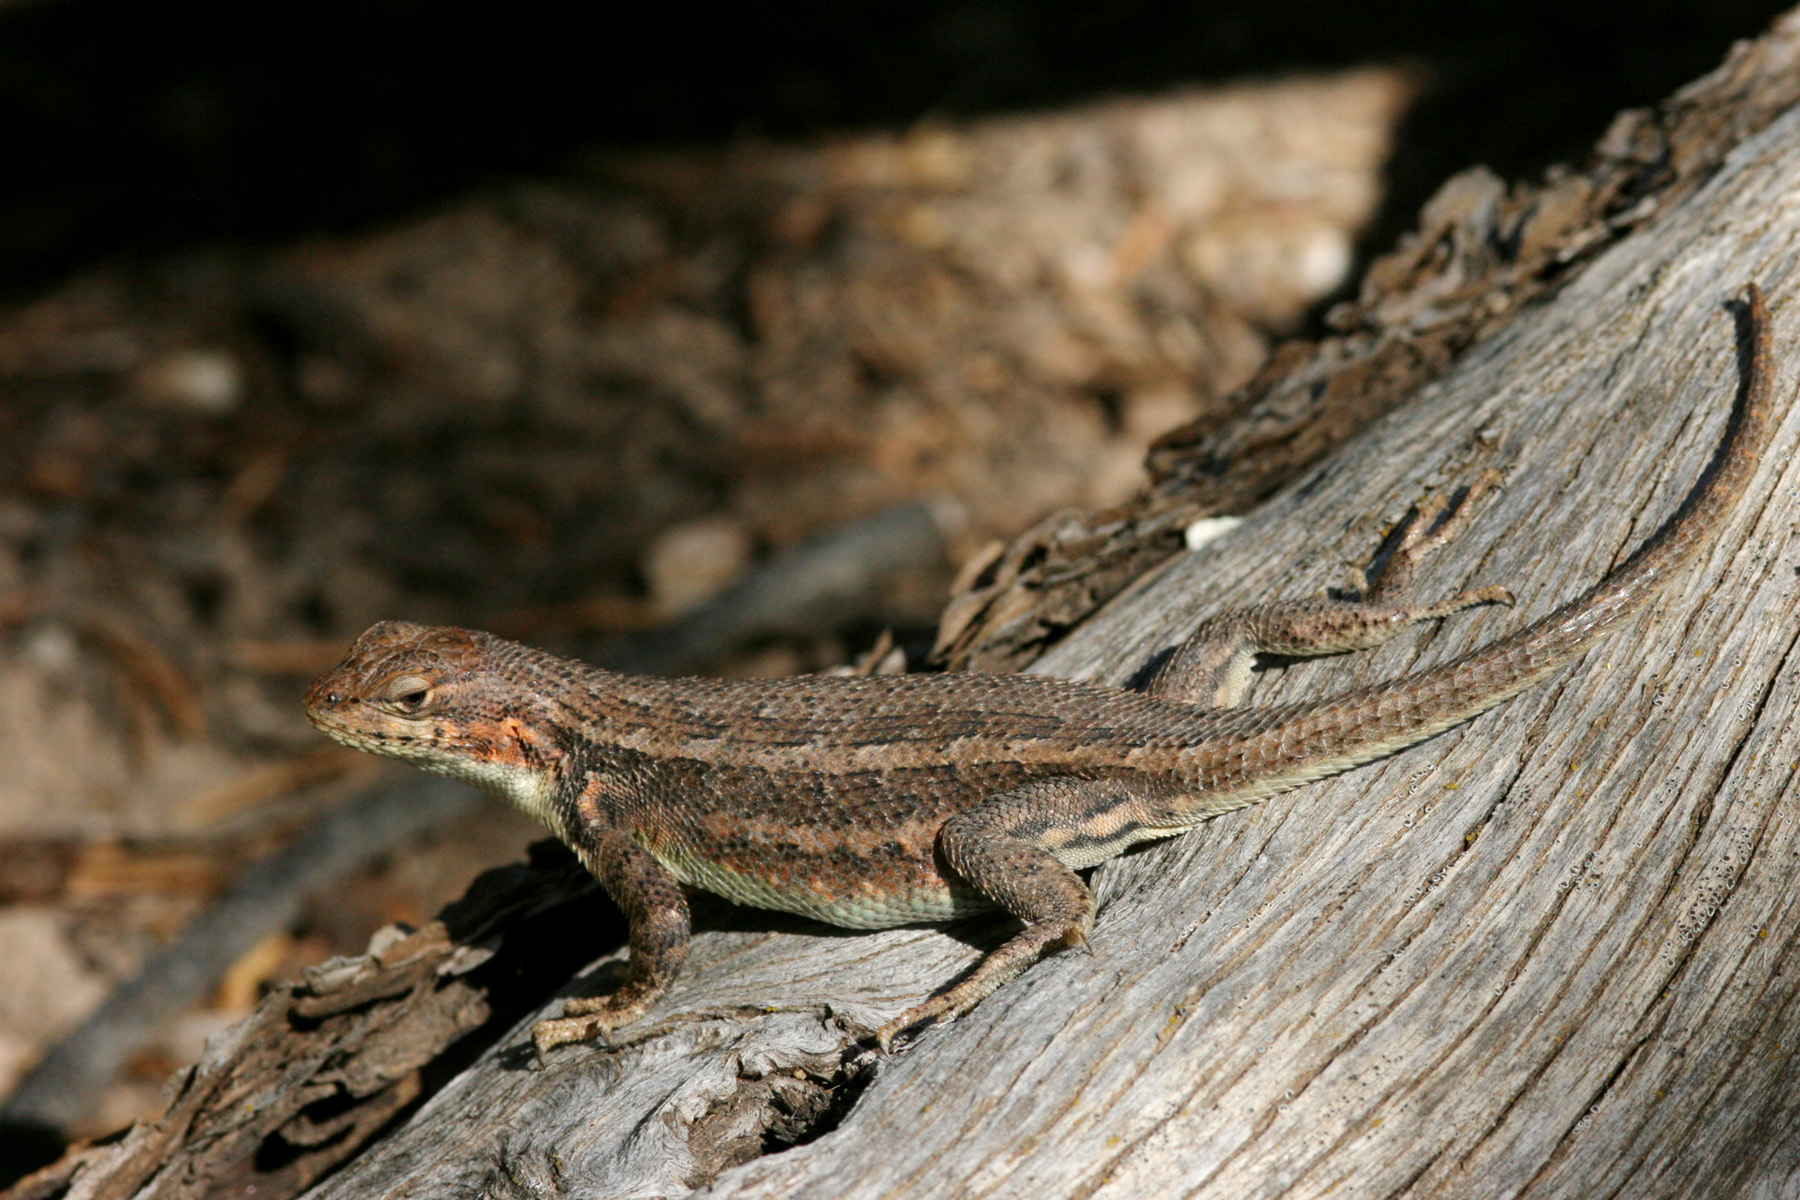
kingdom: Animalia
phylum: Chordata
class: Squamata
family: Phrynosomatidae
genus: Sceloporus
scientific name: Sceloporus graciosus
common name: Sagebrush lizard
